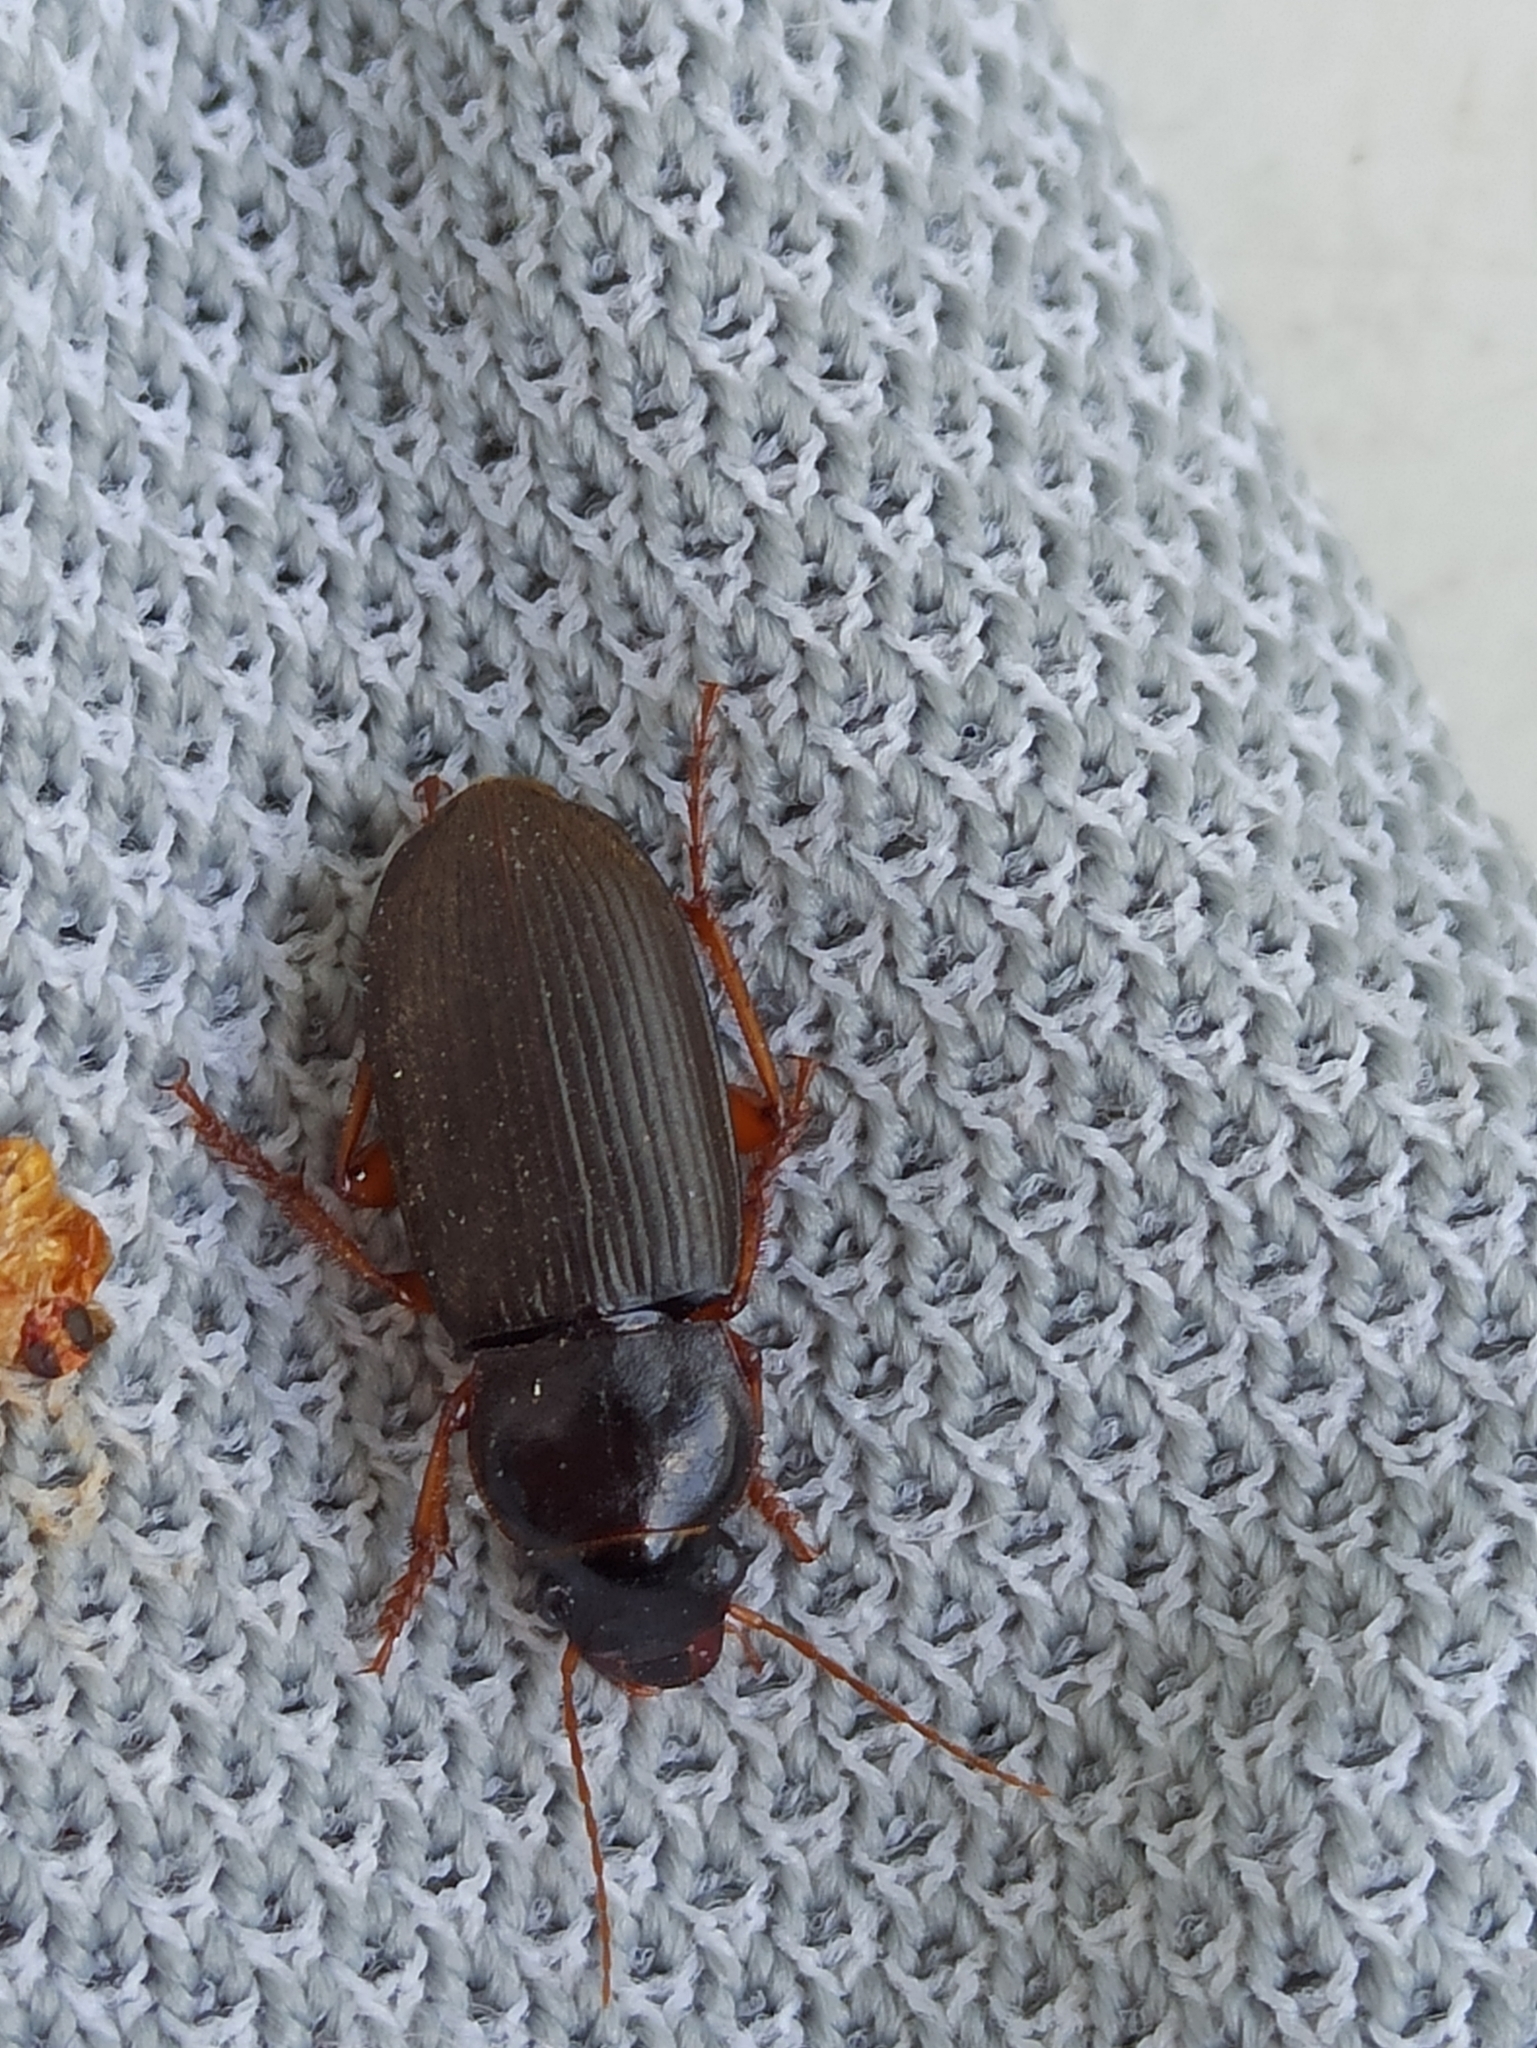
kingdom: Animalia
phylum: Arthropoda
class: Insecta
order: Coleoptera
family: Carabidae
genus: Harpalus
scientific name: Harpalus rufipes
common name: Strawberry harp ground beetle
